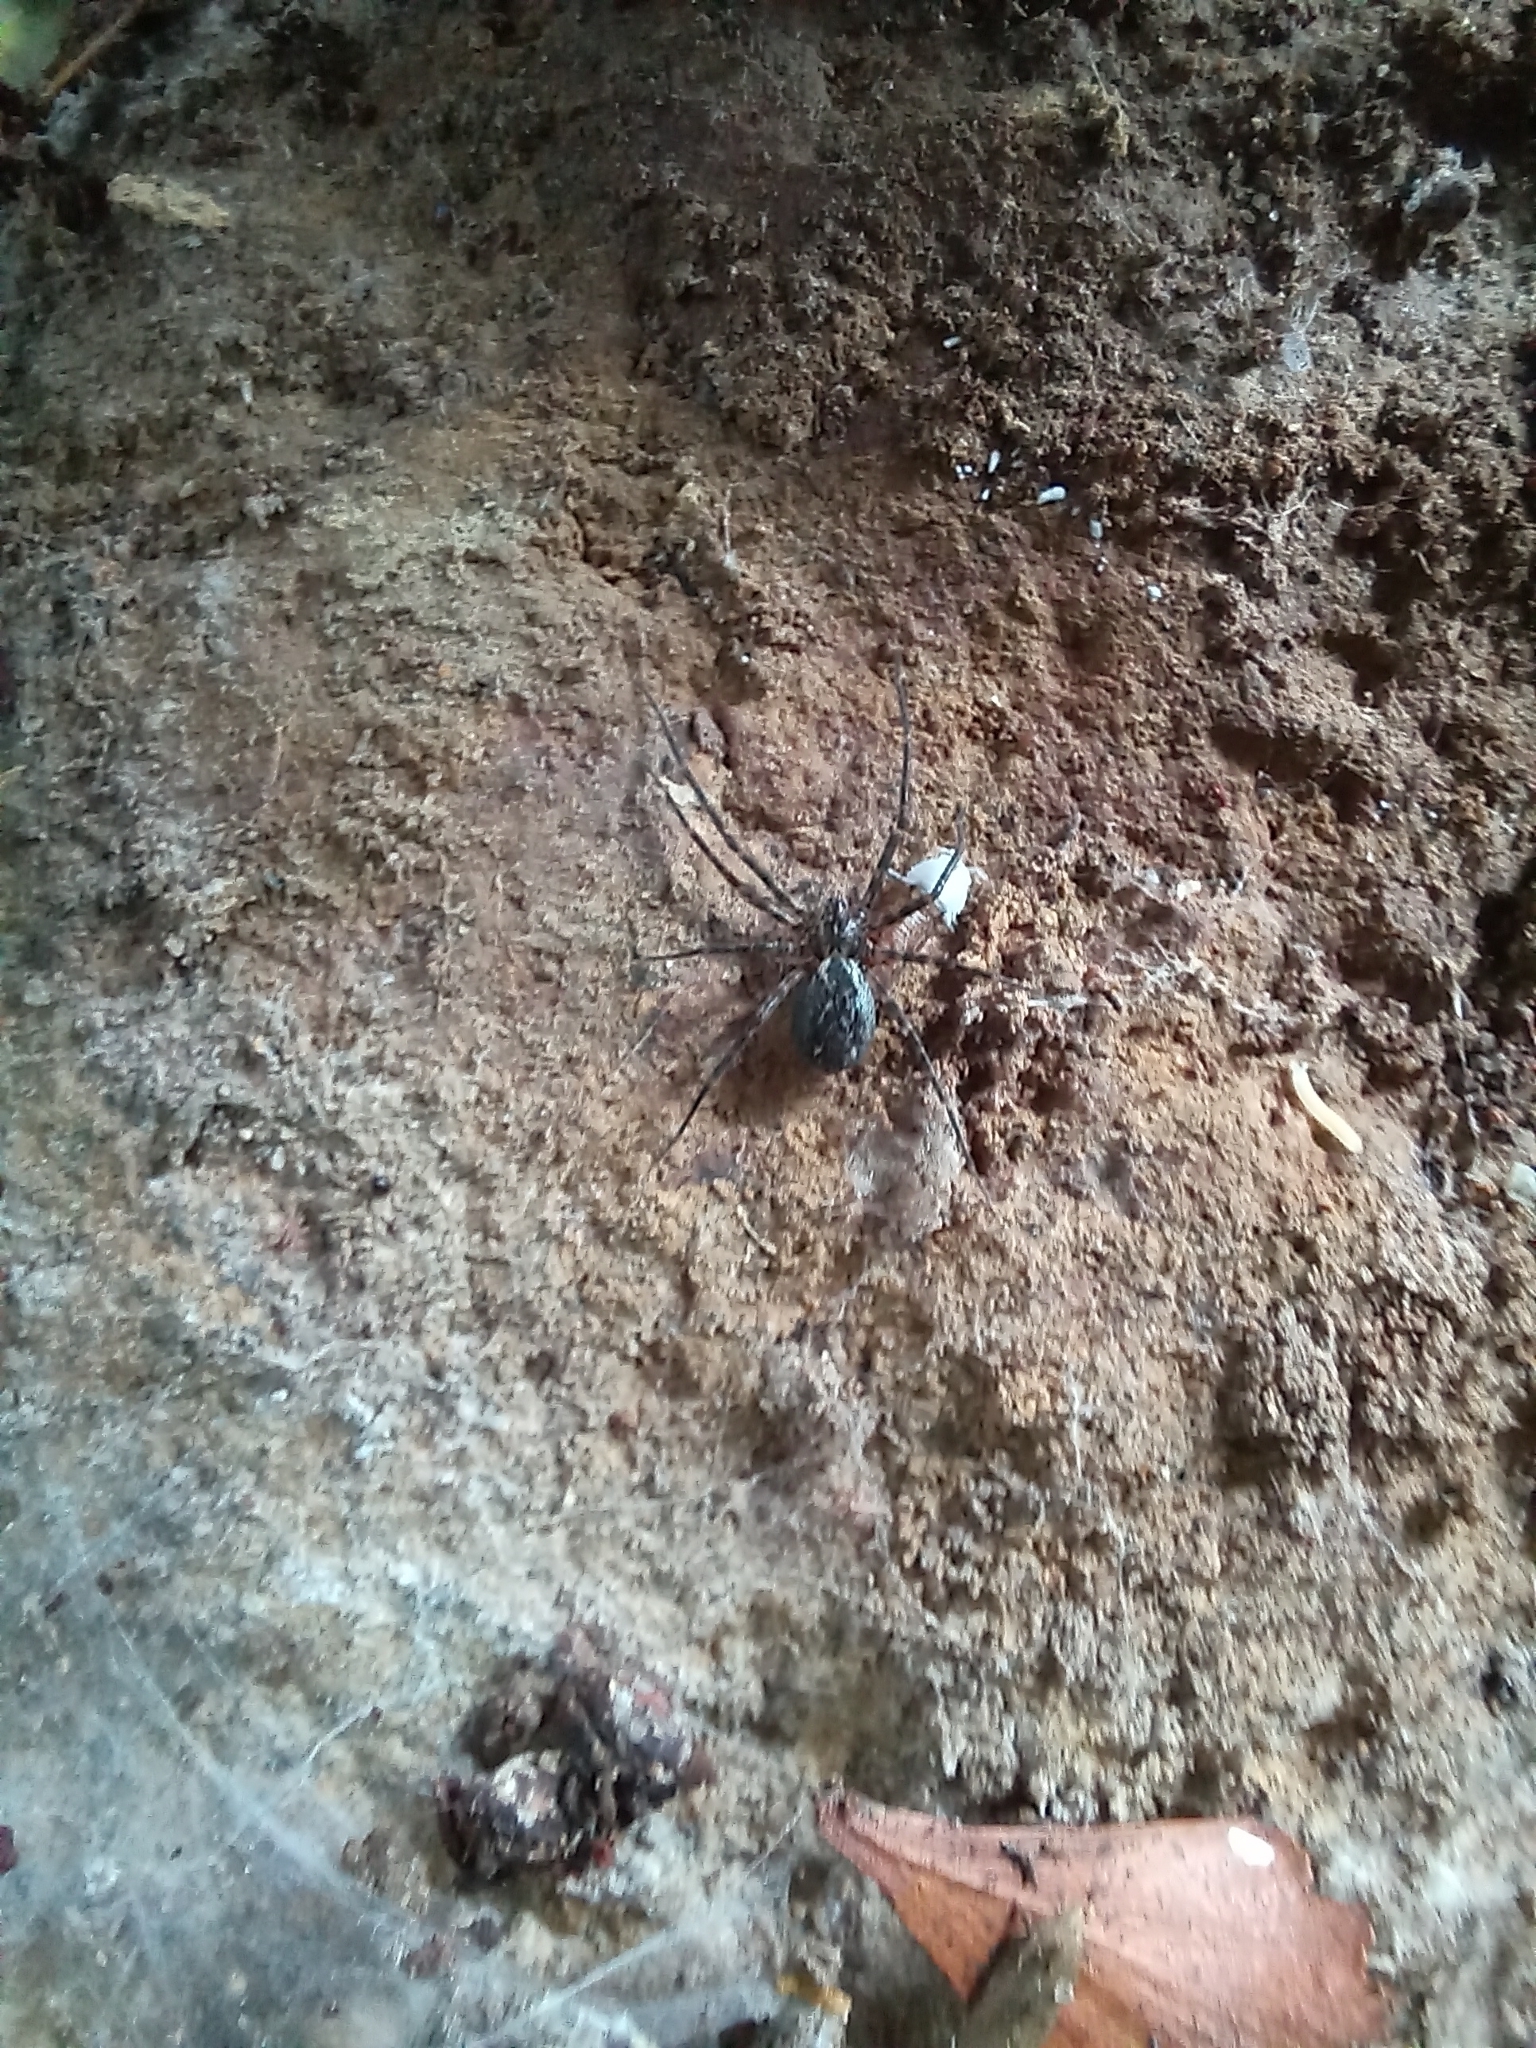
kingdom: Animalia
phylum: Arthropoda
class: Arachnida
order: Araneae
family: Stiphidiidae
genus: Stiphidion
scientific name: Stiphidion facetum
